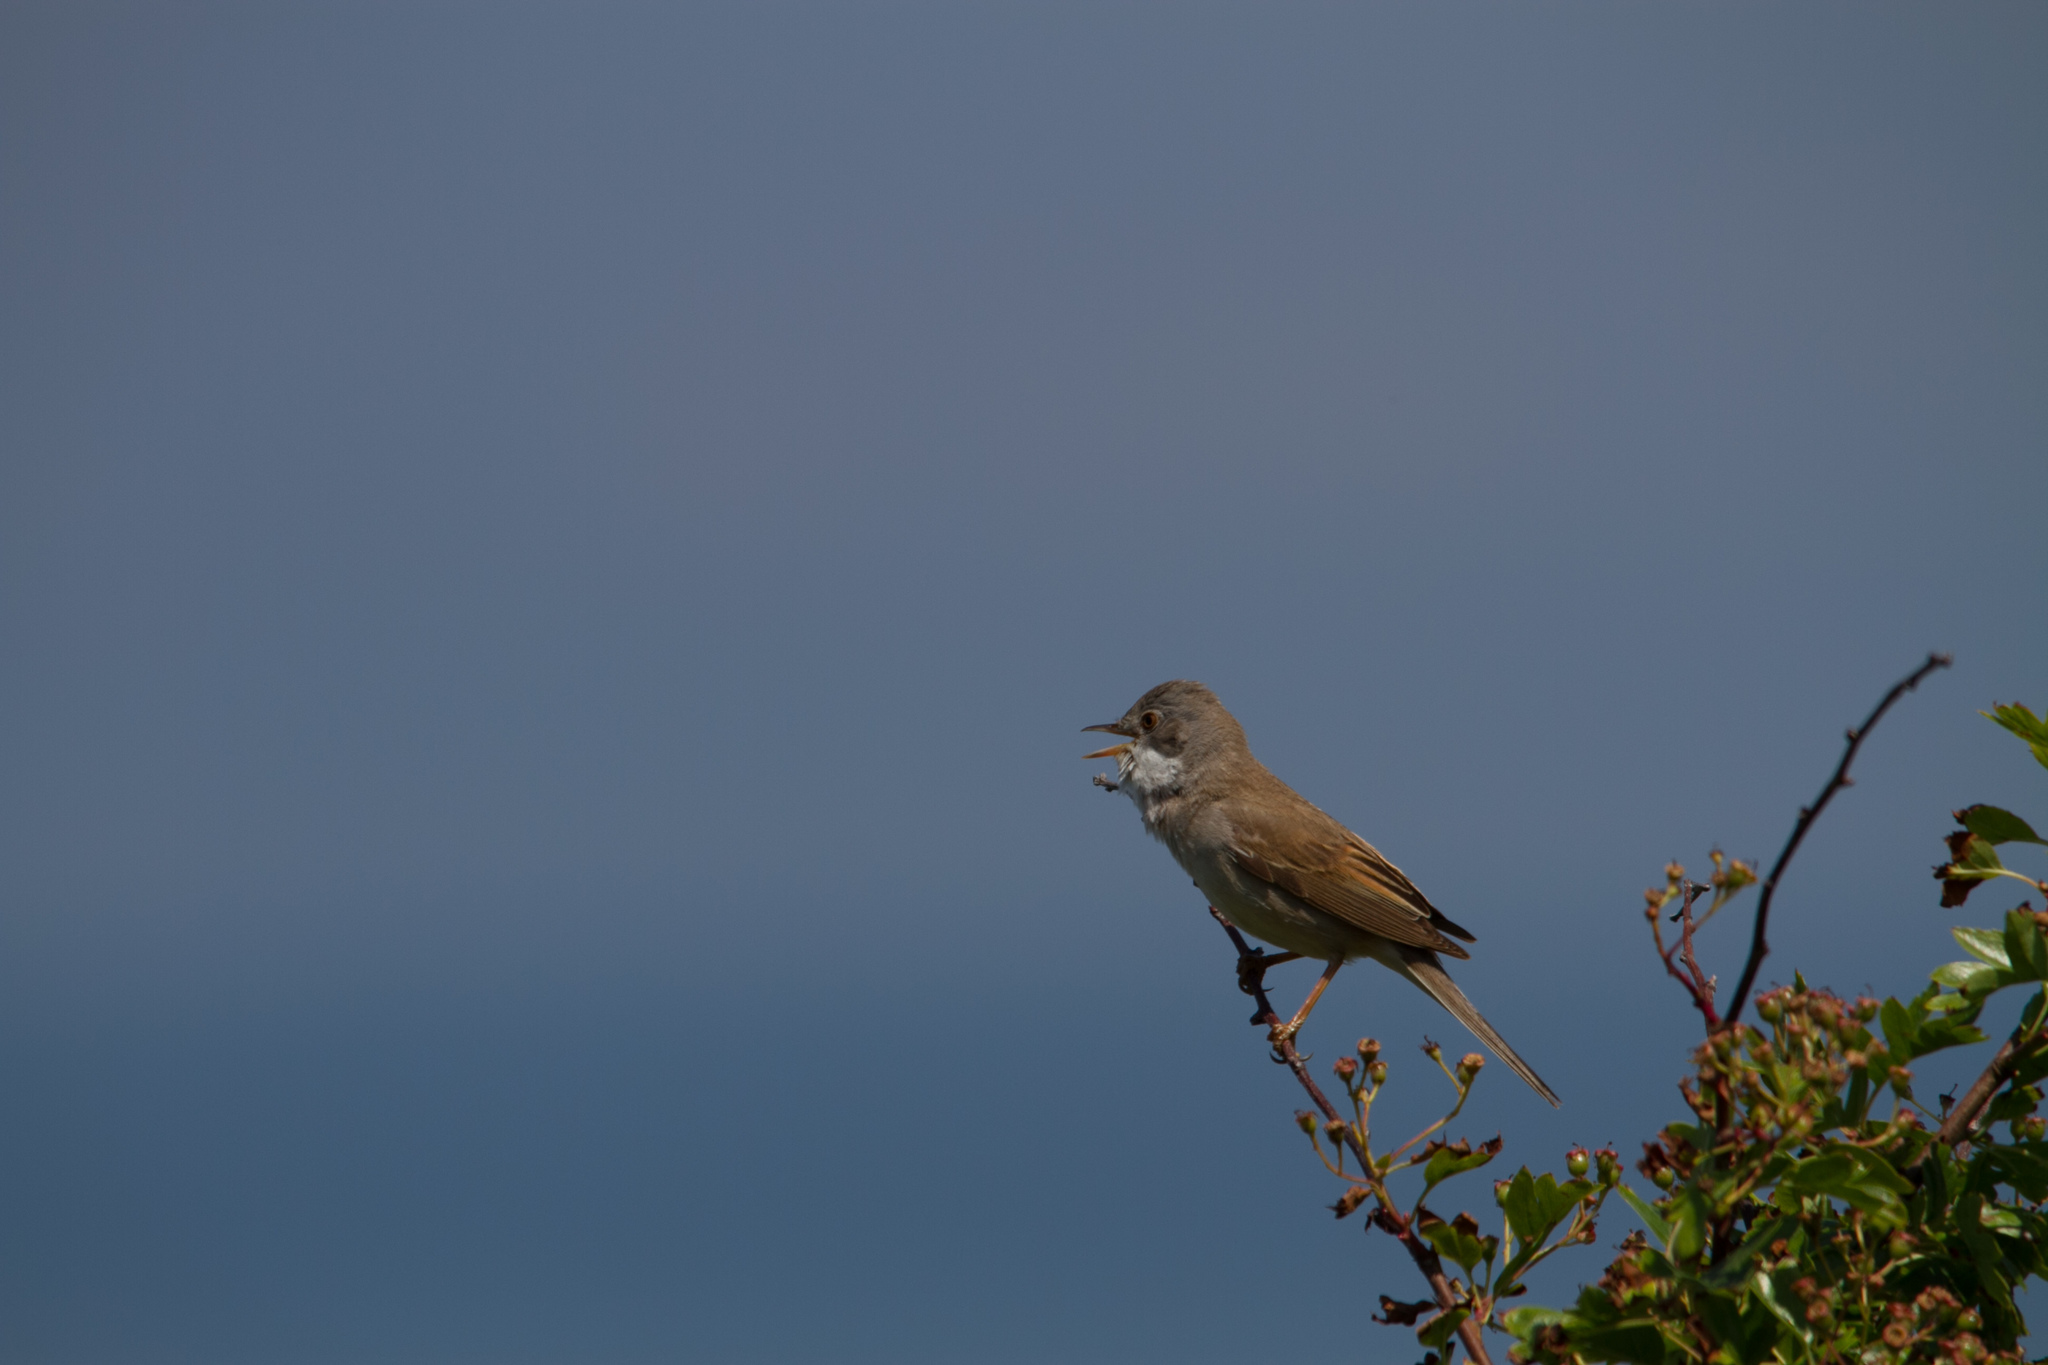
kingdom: Animalia
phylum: Chordata
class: Aves
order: Passeriformes
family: Sylviidae
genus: Sylvia
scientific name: Sylvia communis
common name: Common whitethroat
